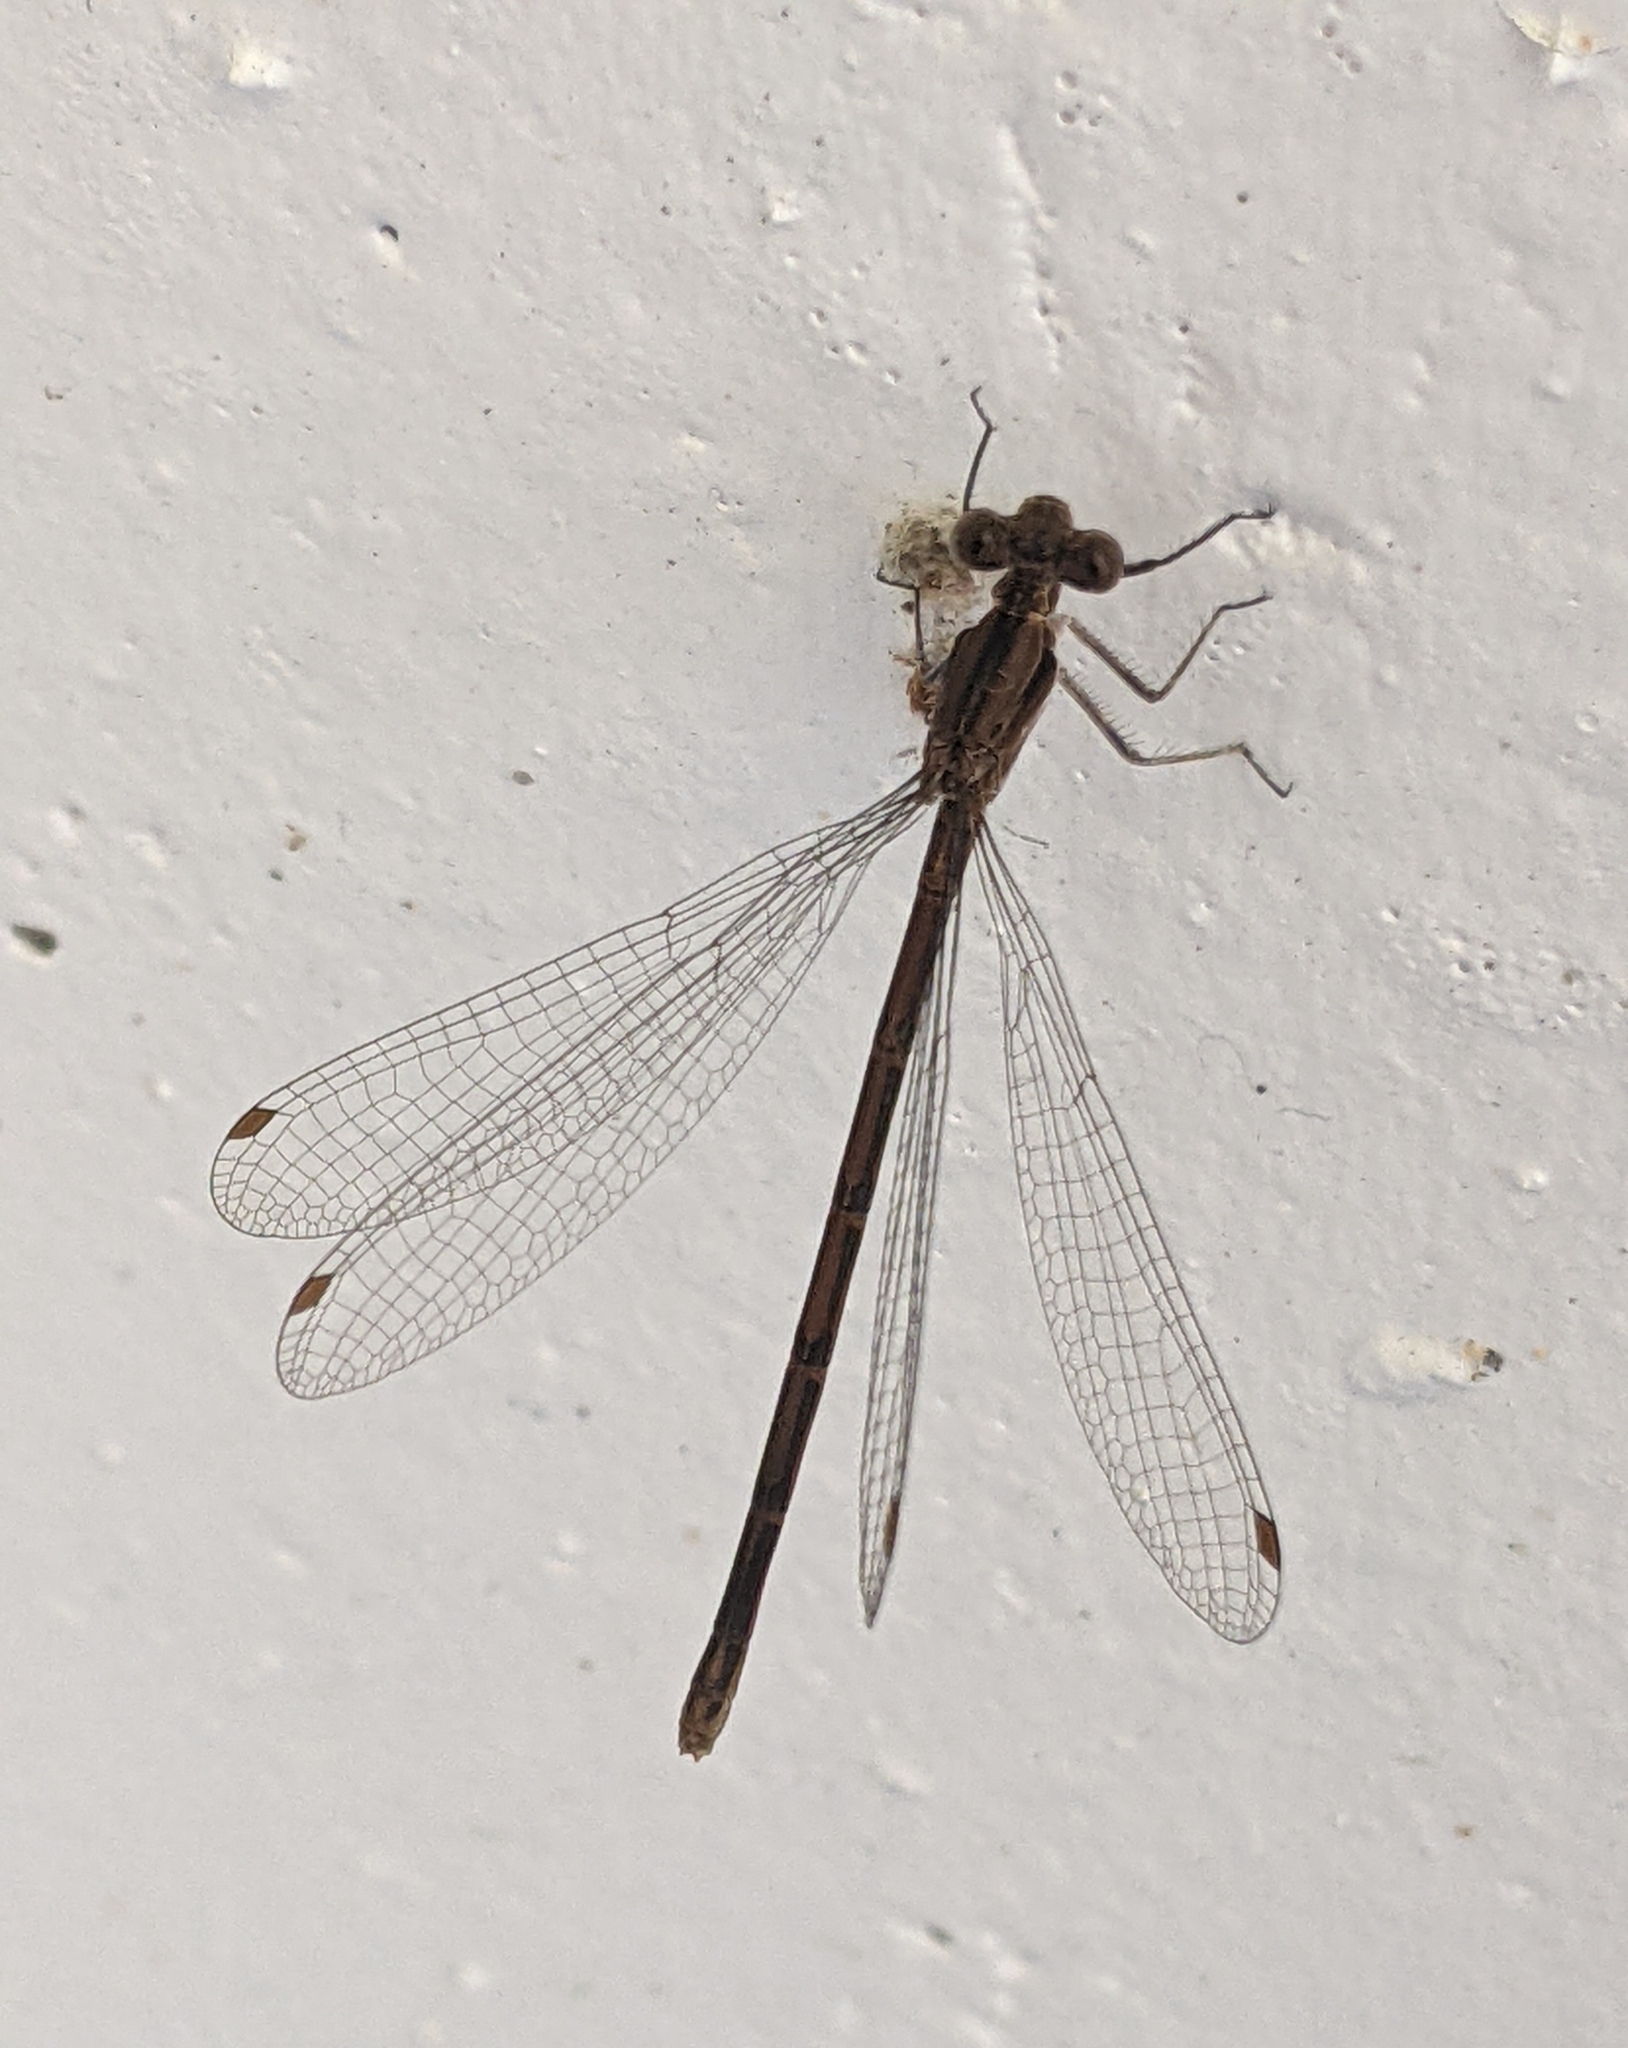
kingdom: Animalia
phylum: Arthropoda
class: Insecta
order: Odonata
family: Coenagrionidae
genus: Argia
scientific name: Argia fumipennis
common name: Variable dancer
